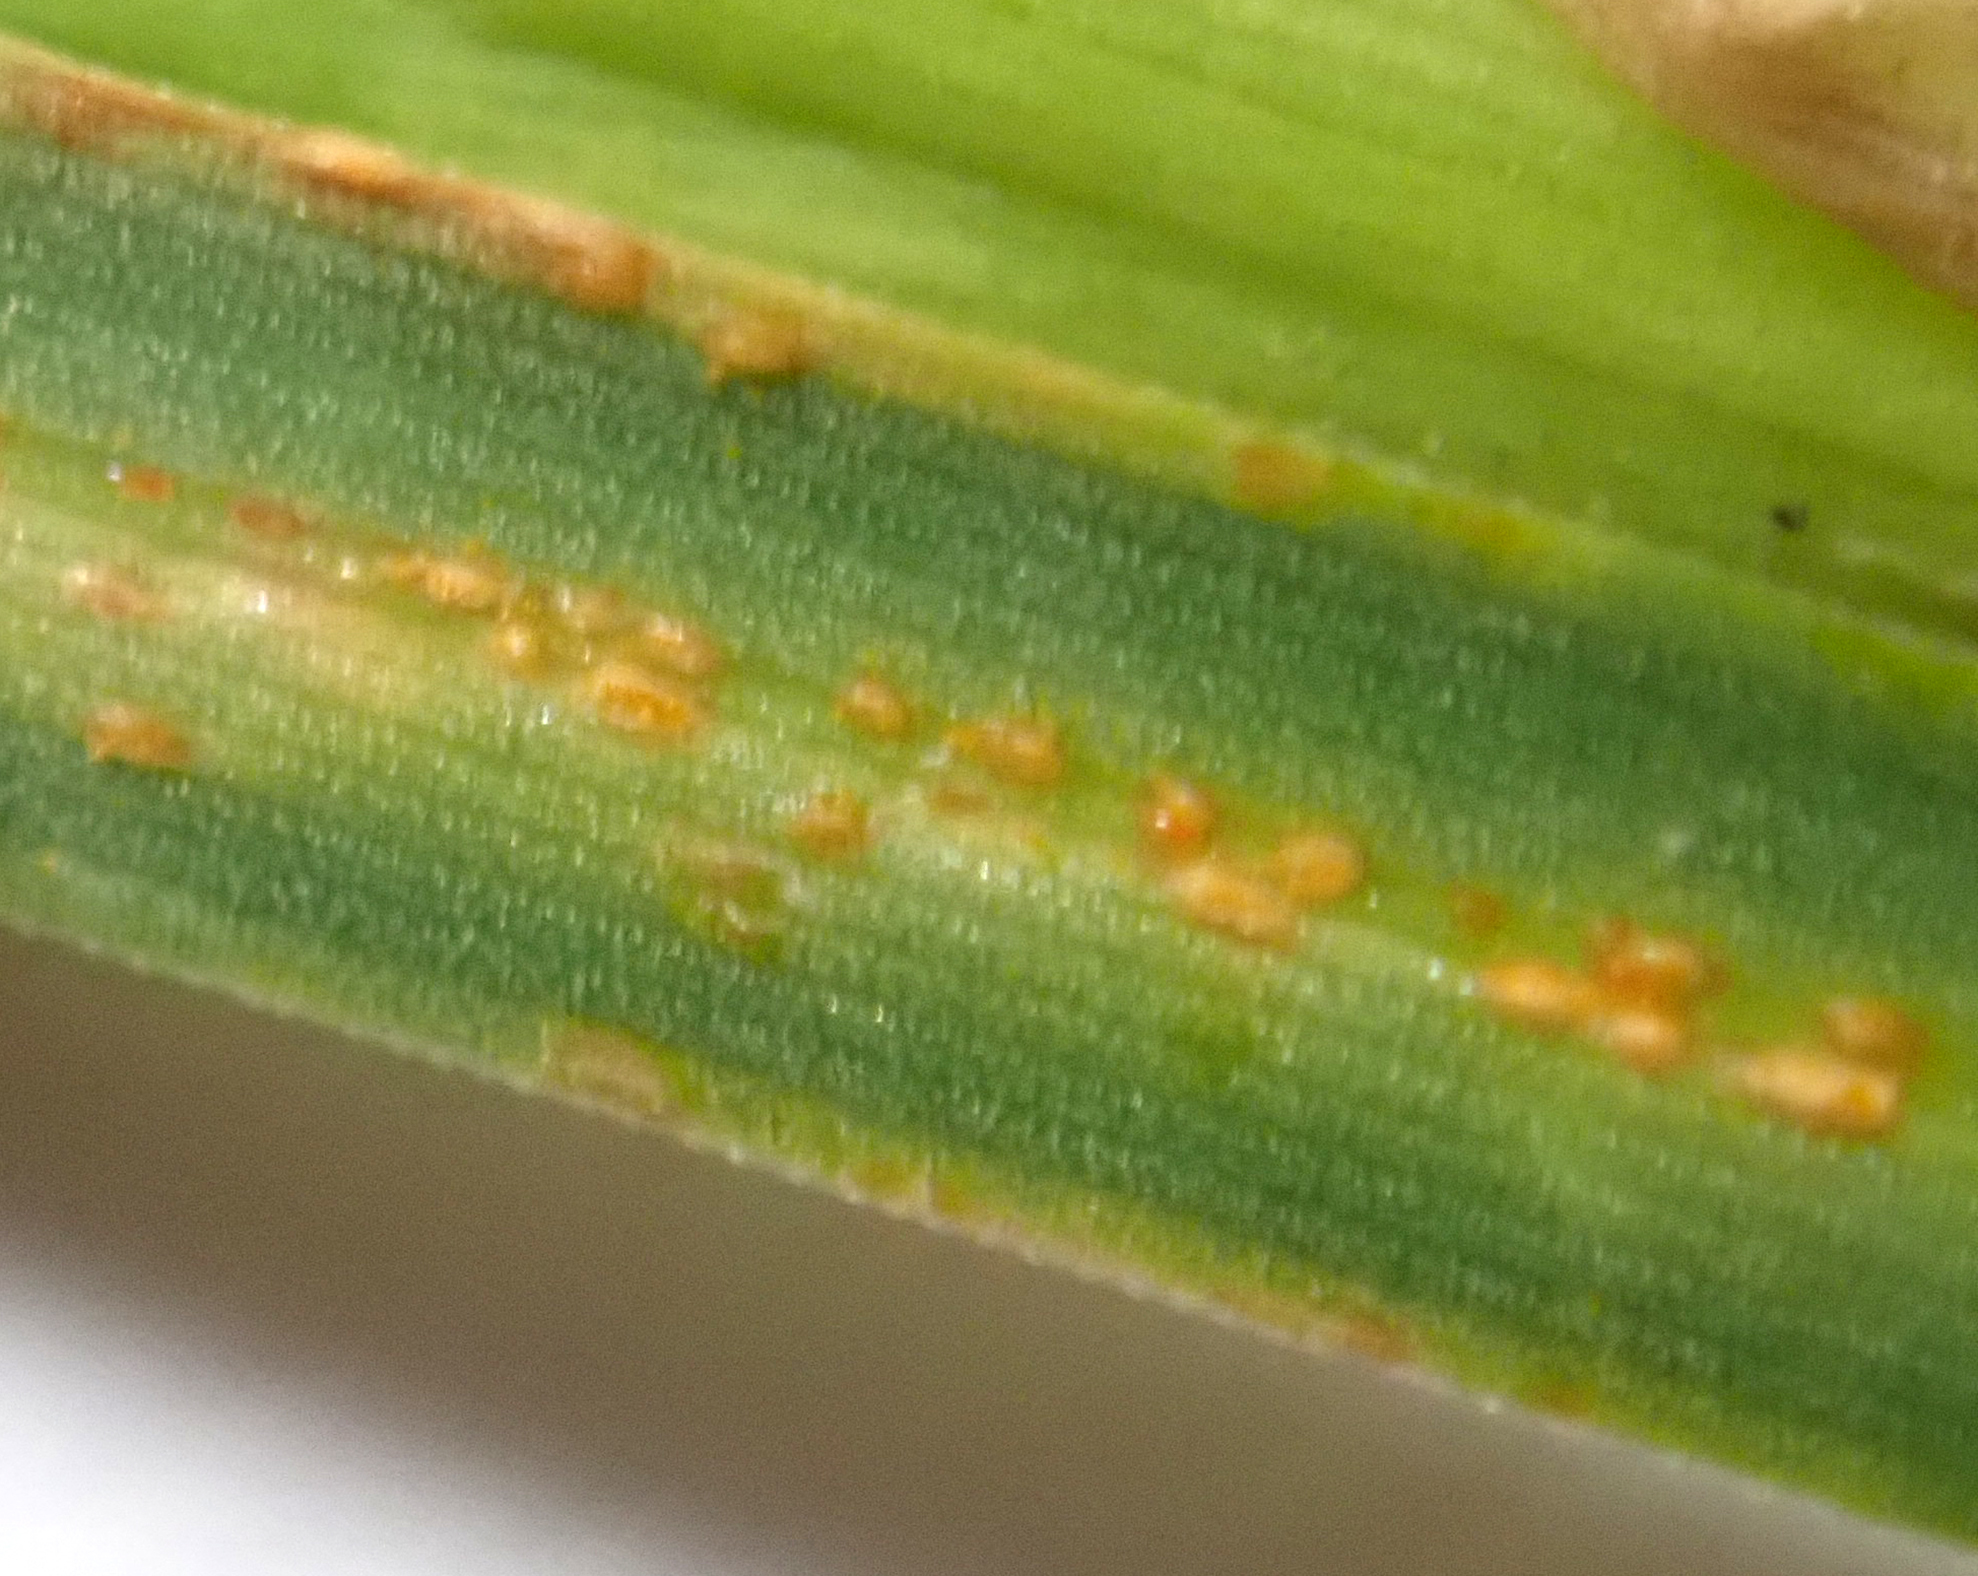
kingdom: Fungi
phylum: Basidiomycota
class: Pucciniomycetes
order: Pucciniales
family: Pucciniaceae
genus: Puccinia
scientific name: Puccinia coronata
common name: Crown rust
